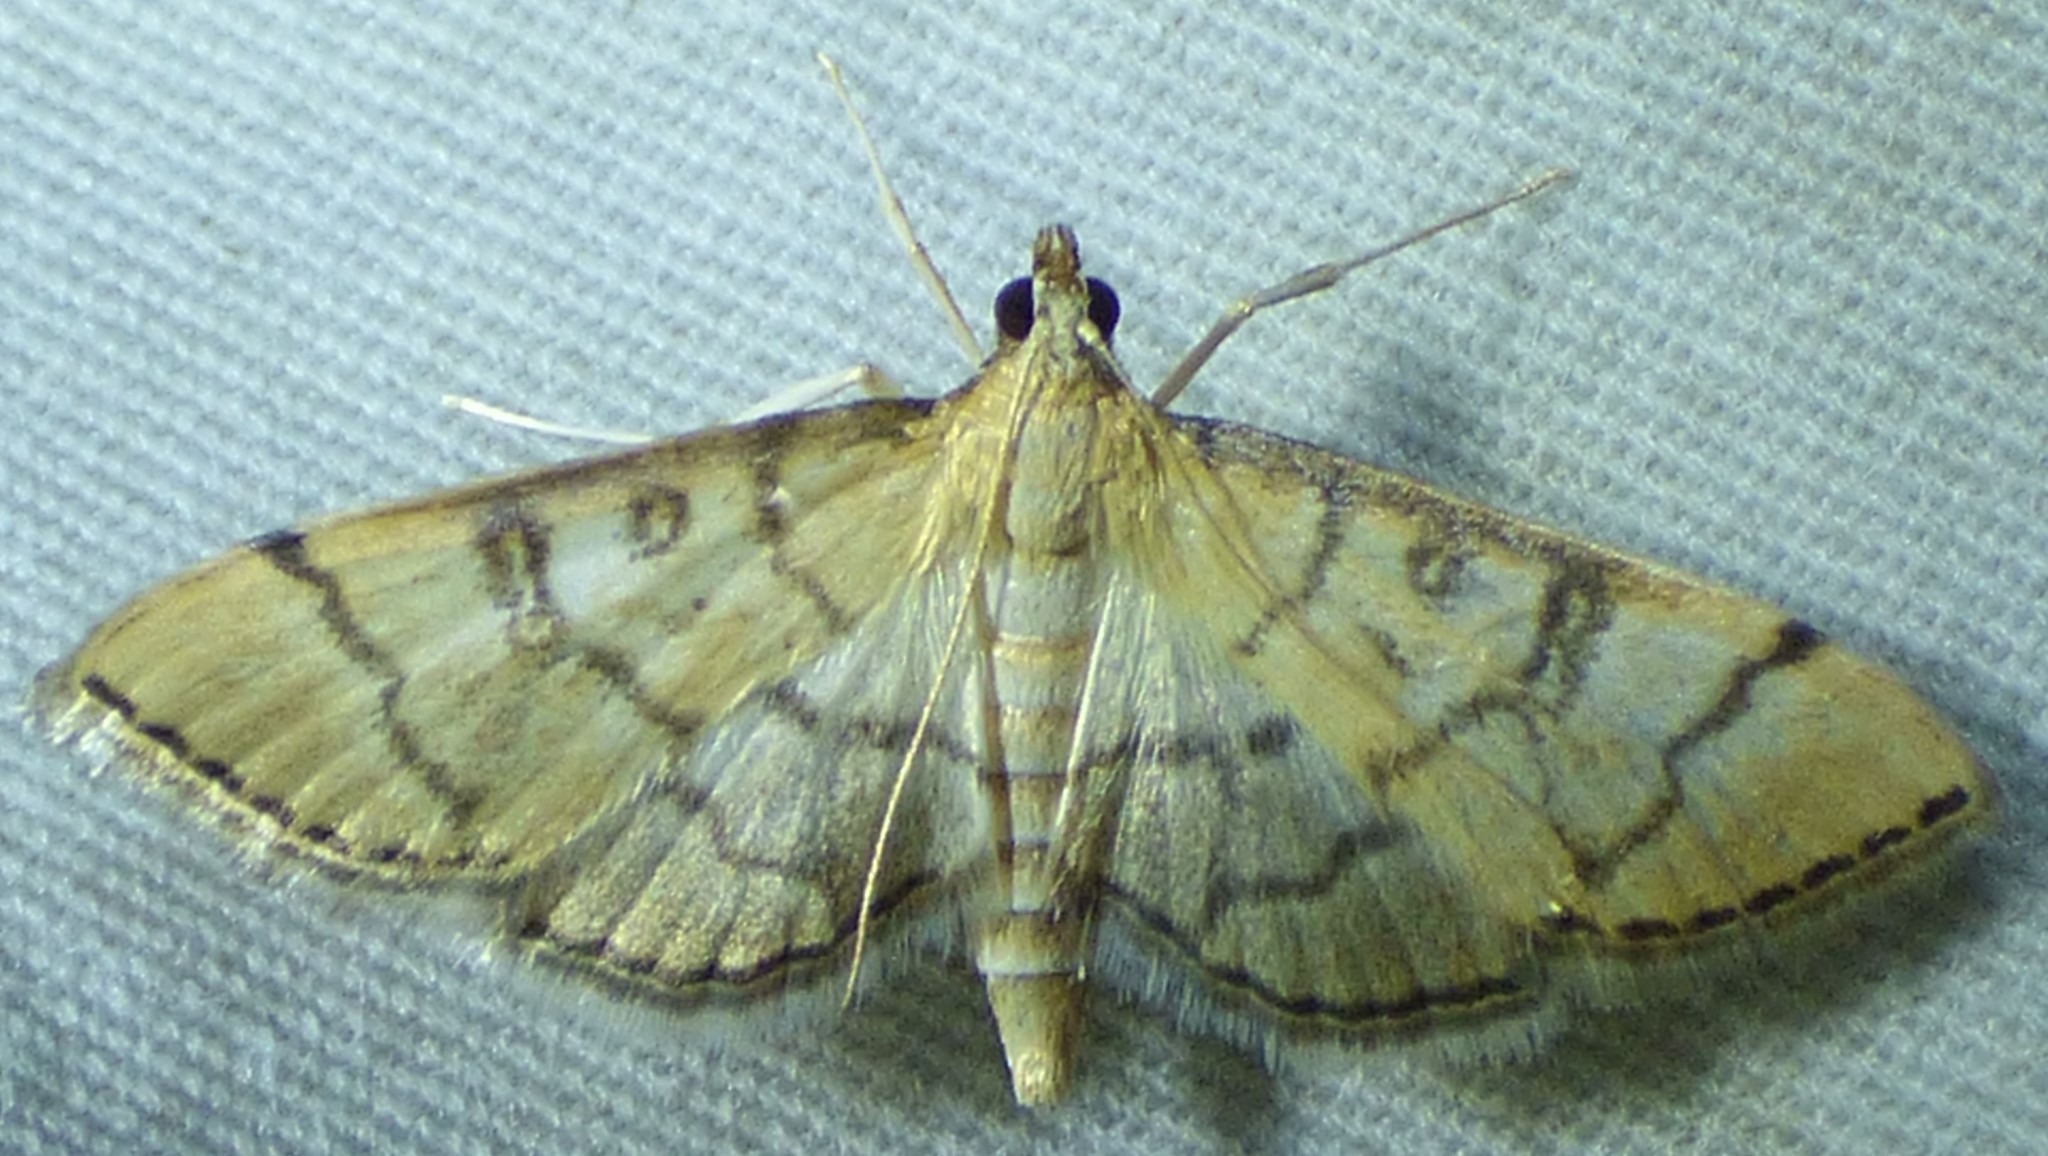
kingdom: Animalia
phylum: Arthropoda
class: Insecta
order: Lepidoptera
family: Crambidae
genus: Lamprosema
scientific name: Lamprosema Blepharomastix ranalis
